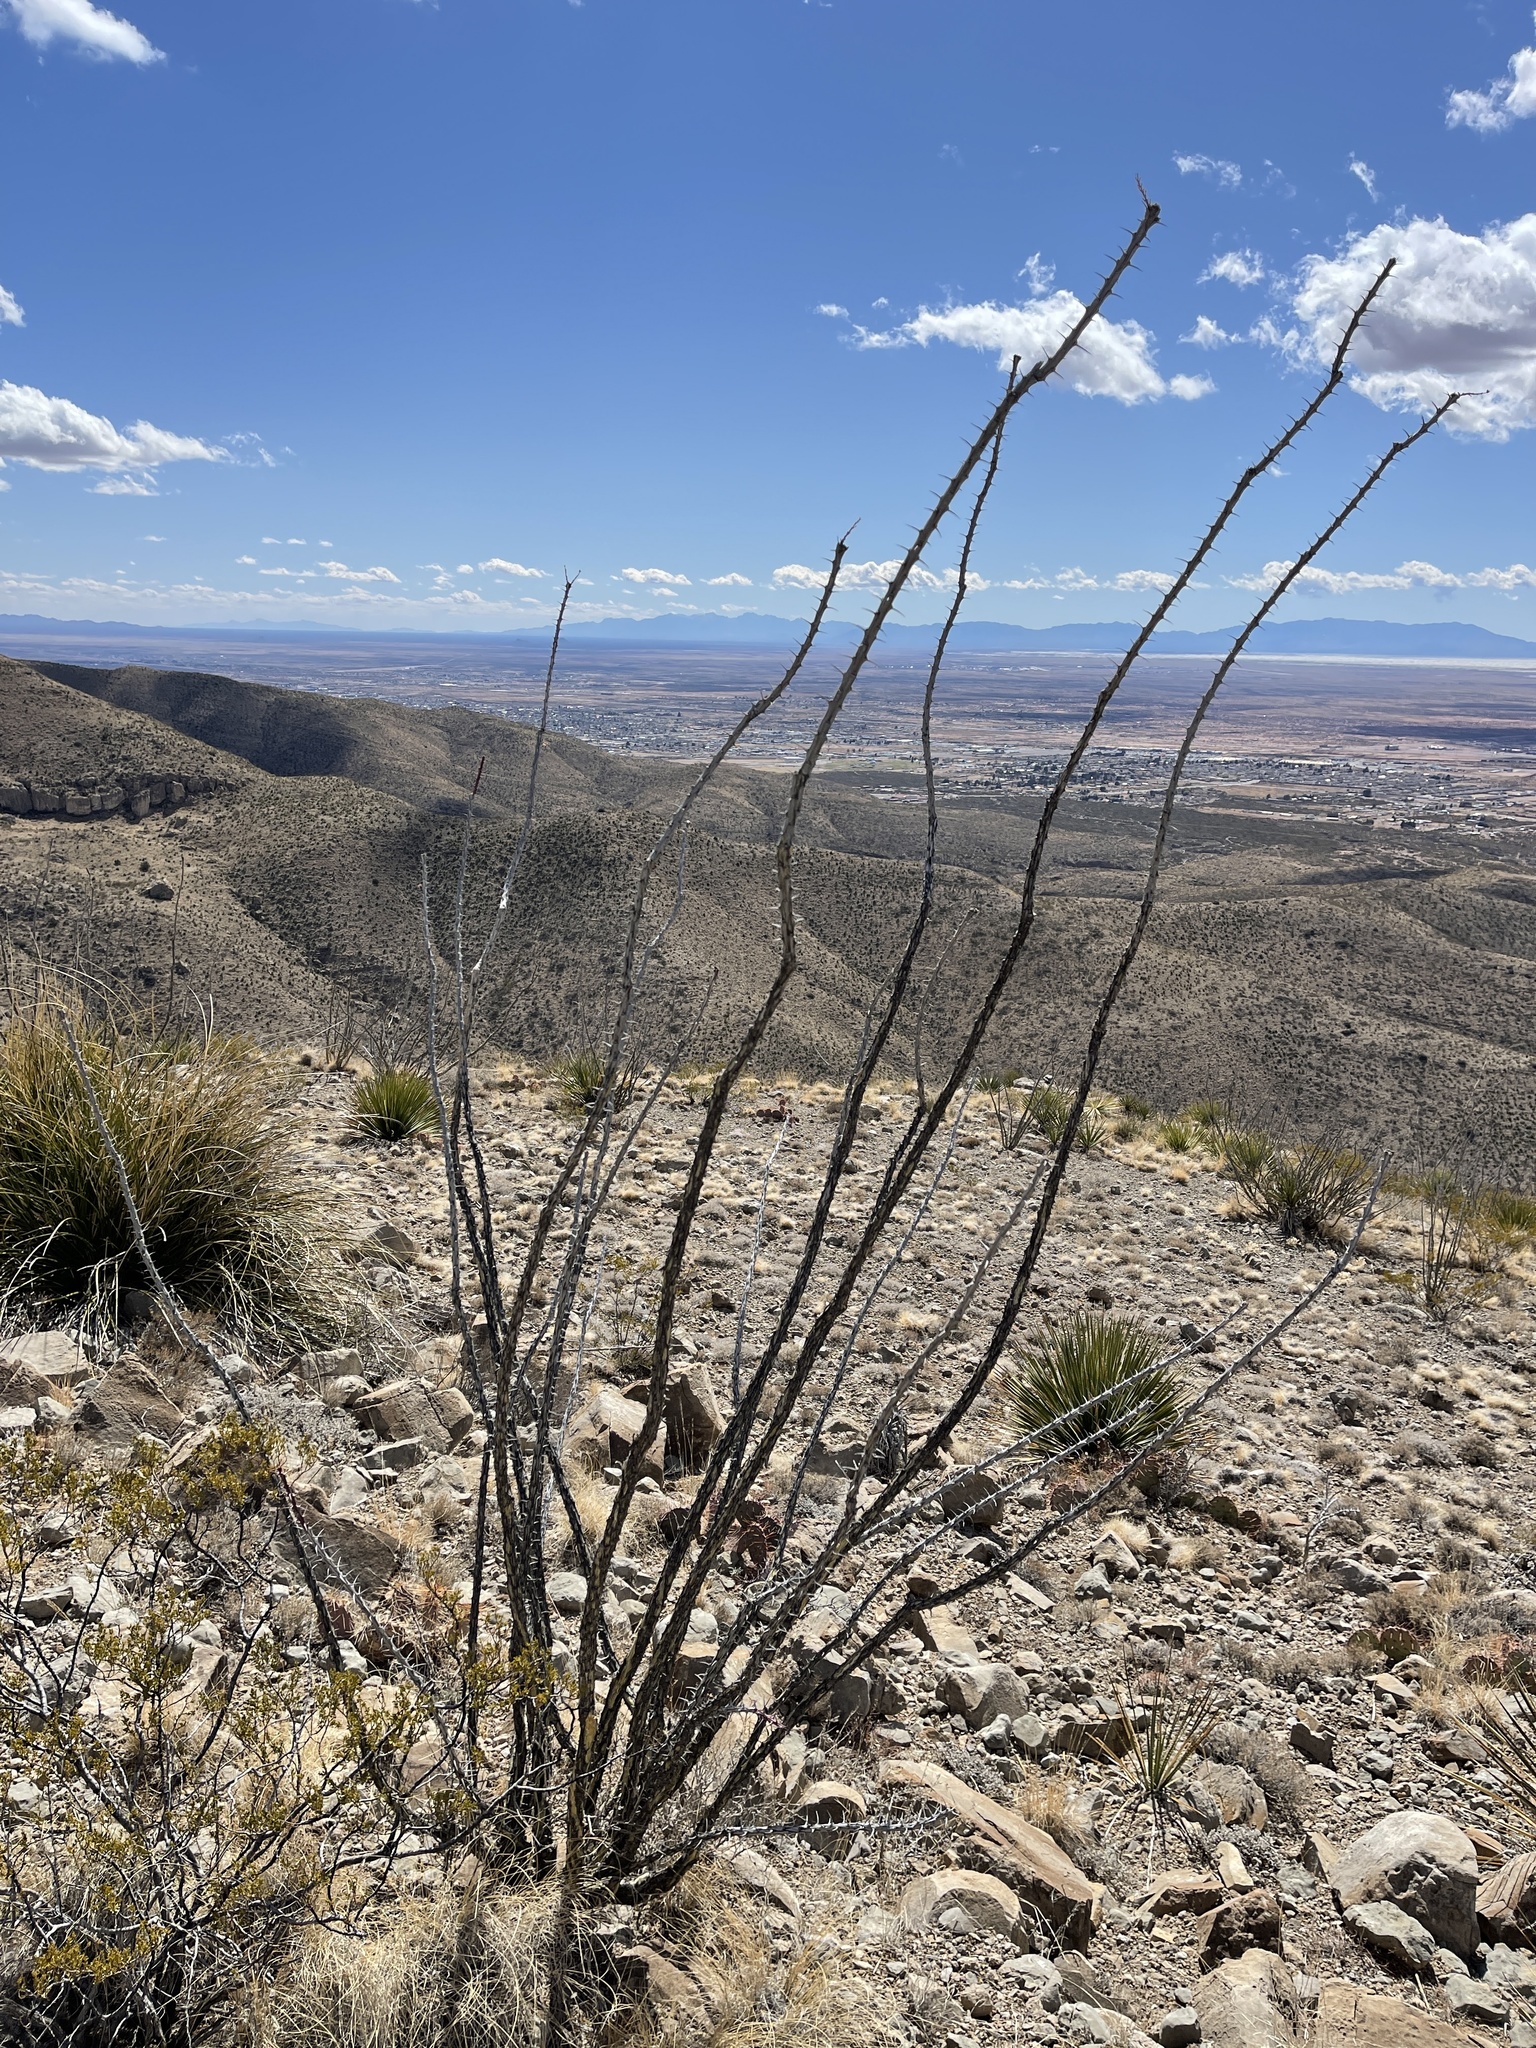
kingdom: Plantae
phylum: Tracheophyta
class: Magnoliopsida
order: Ericales
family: Fouquieriaceae
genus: Fouquieria
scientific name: Fouquieria splendens
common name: Vine-cactus
